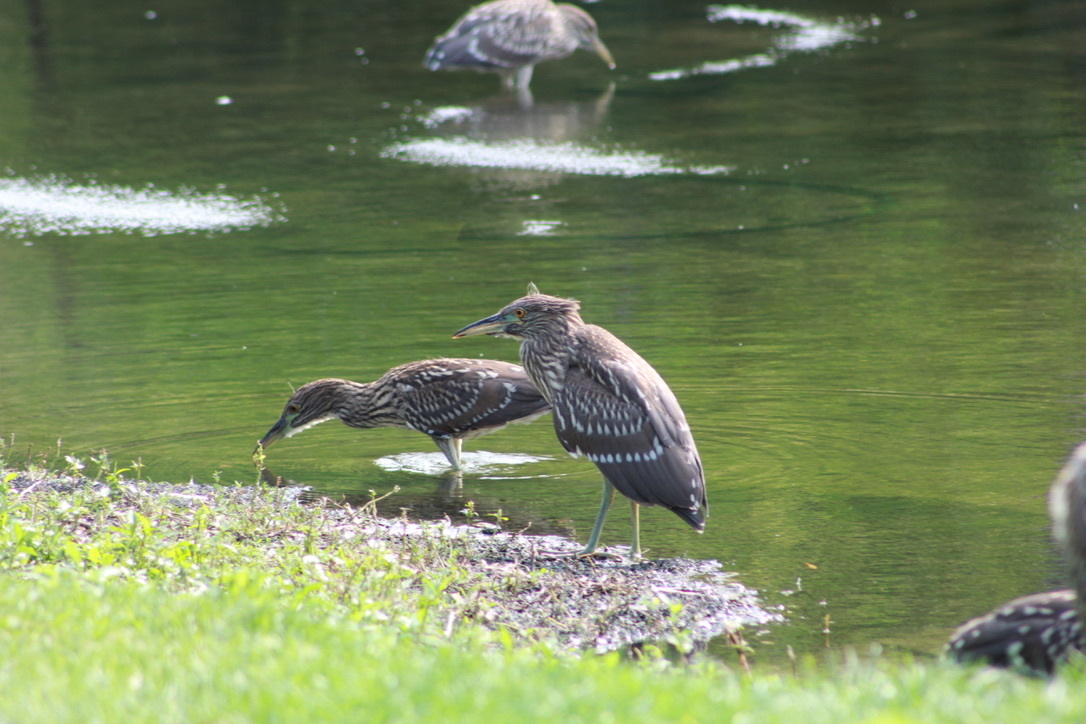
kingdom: Animalia
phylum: Chordata
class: Aves
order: Pelecaniformes
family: Ardeidae
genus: Nycticorax
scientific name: Nycticorax nycticorax
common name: Black-crowned night heron
